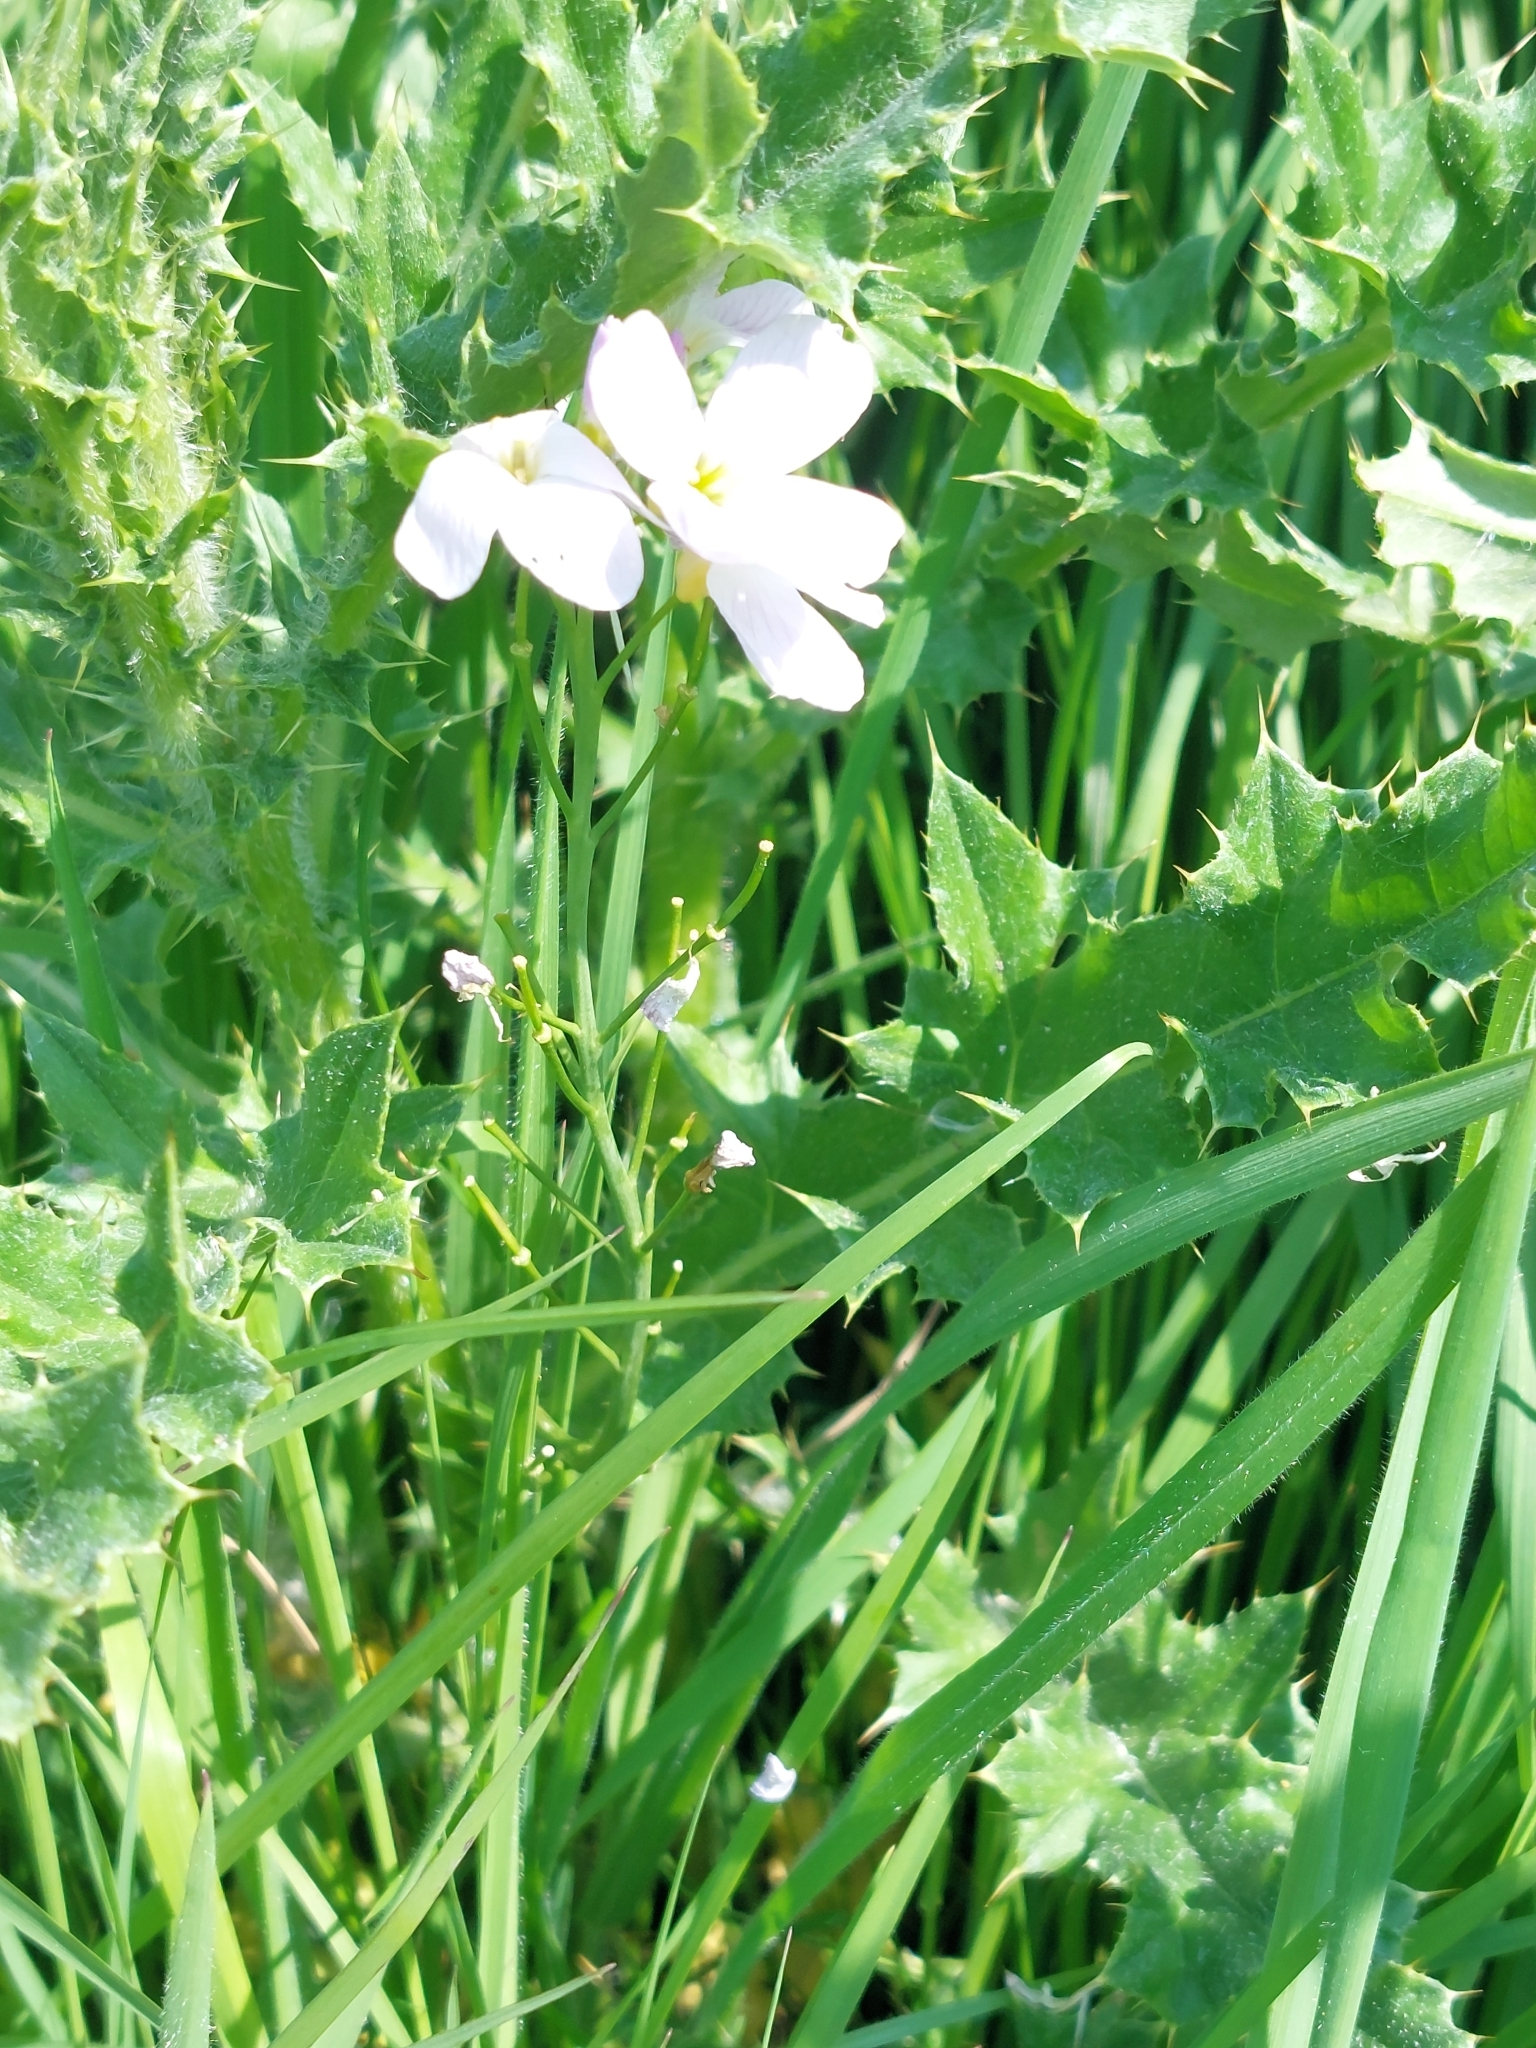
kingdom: Plantae
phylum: Tracheophyta
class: Magnoliopsida
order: Brassicales
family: Brassicaceae
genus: Cardamine
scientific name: Cardamine pratensis
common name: Cuckoo flower
